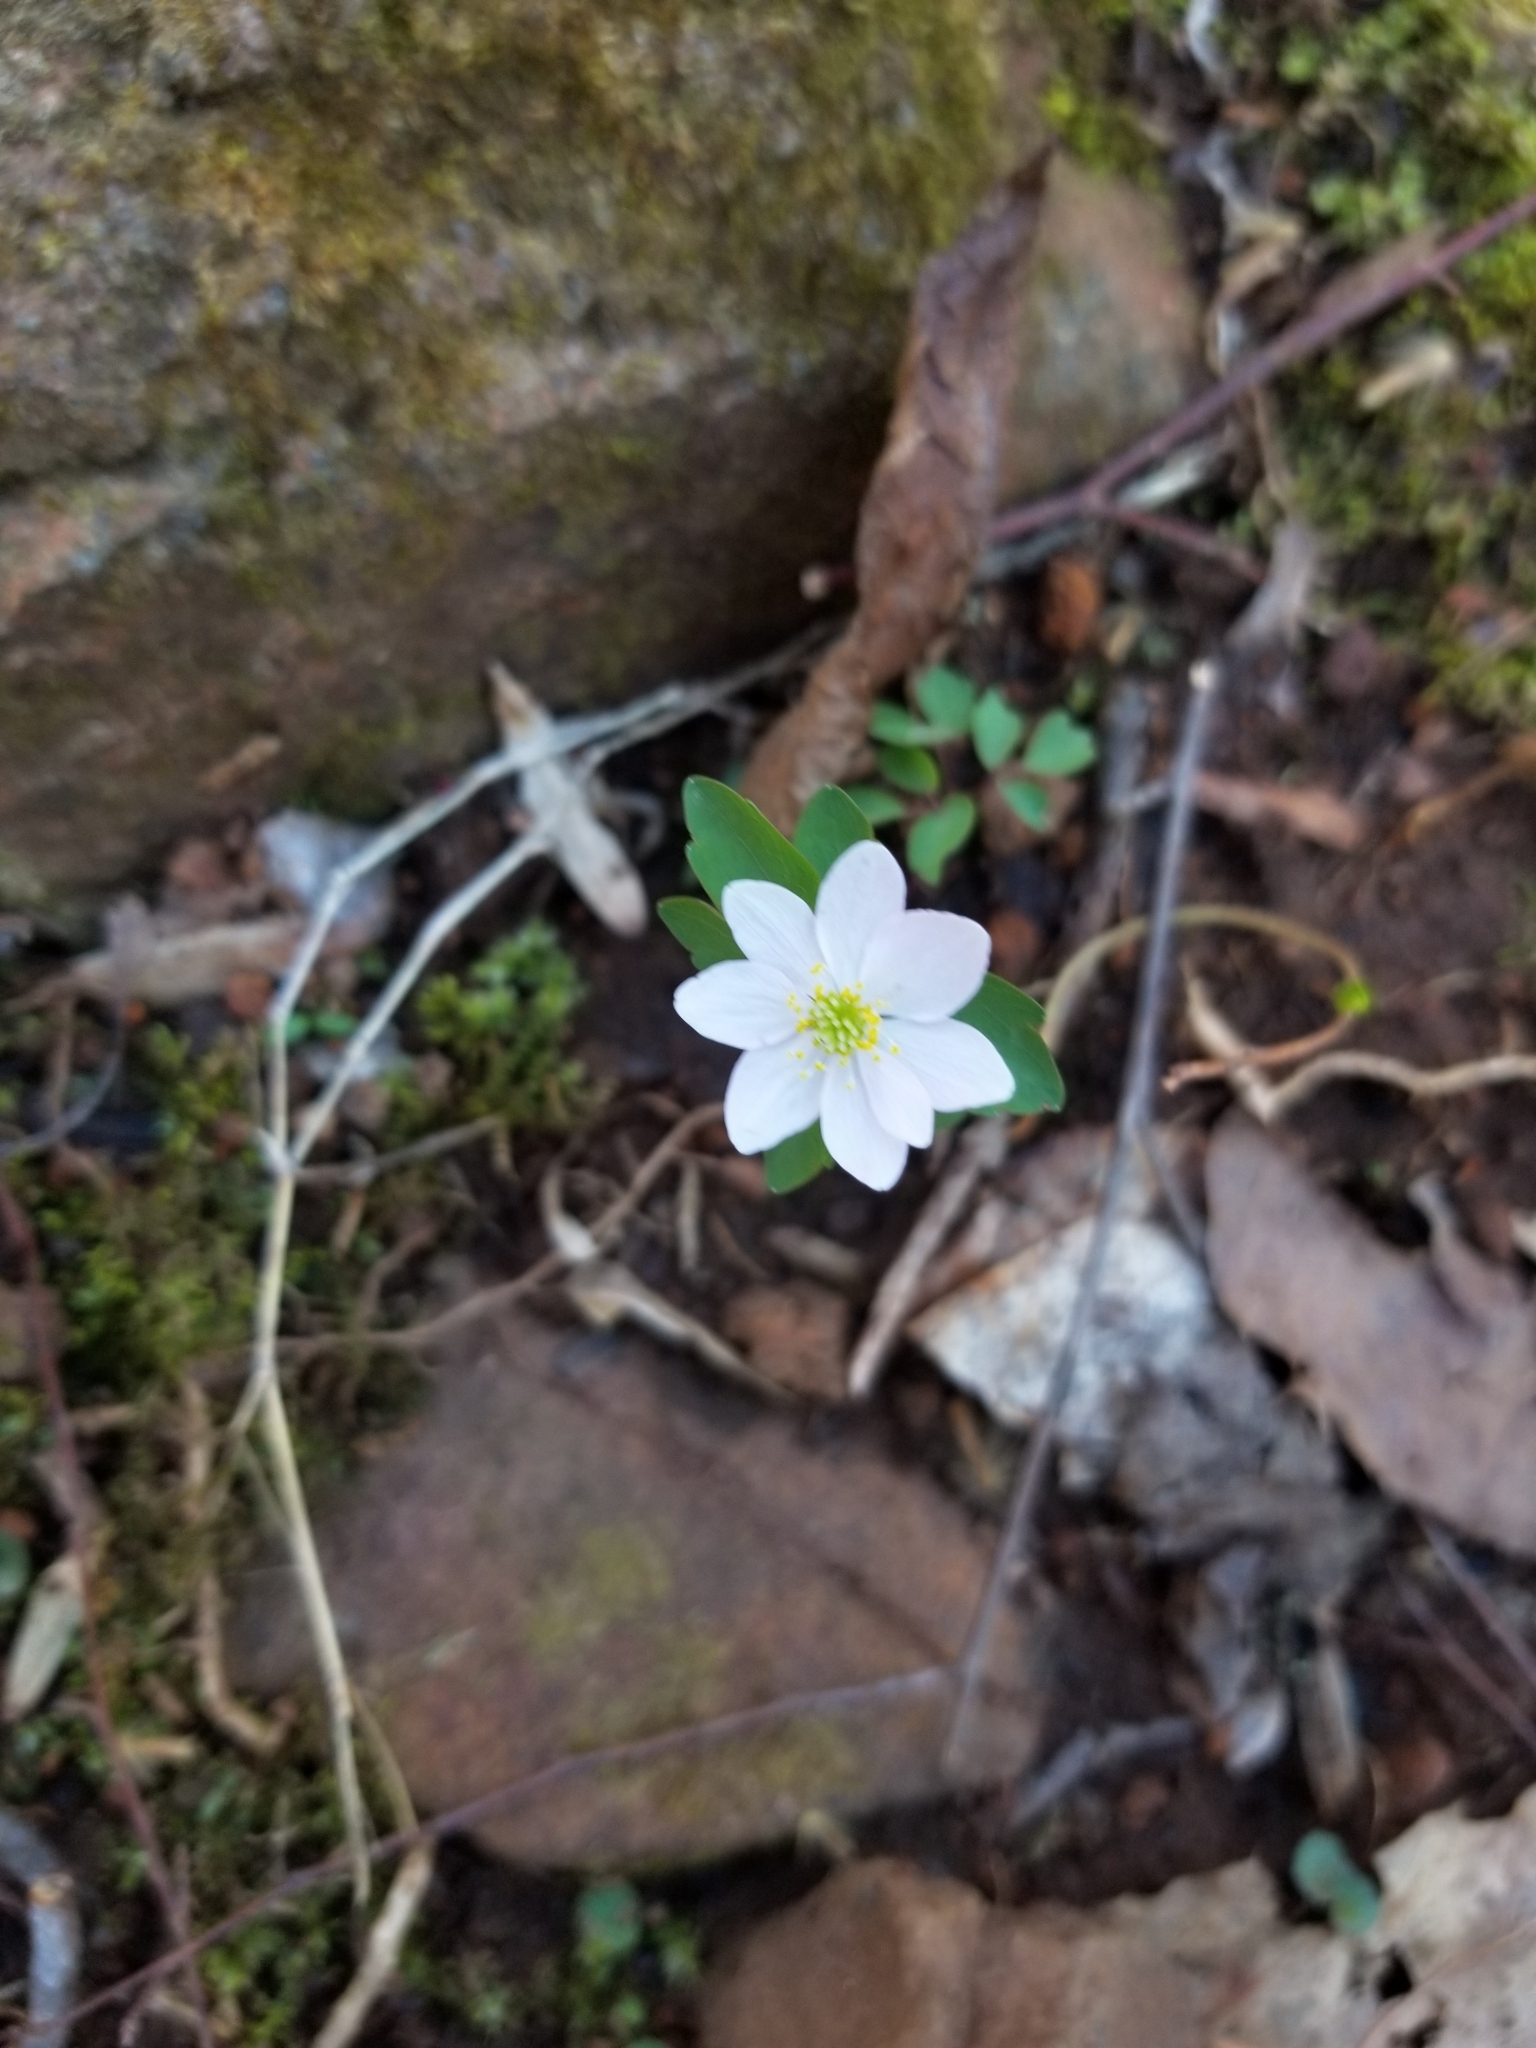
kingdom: Plantae
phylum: Tracheophyta
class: Magnoliopsida
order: Ranunculales
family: Ranunculaceae
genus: Thalictrum
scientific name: Thalictrum thalictroides
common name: Rue-anemone
